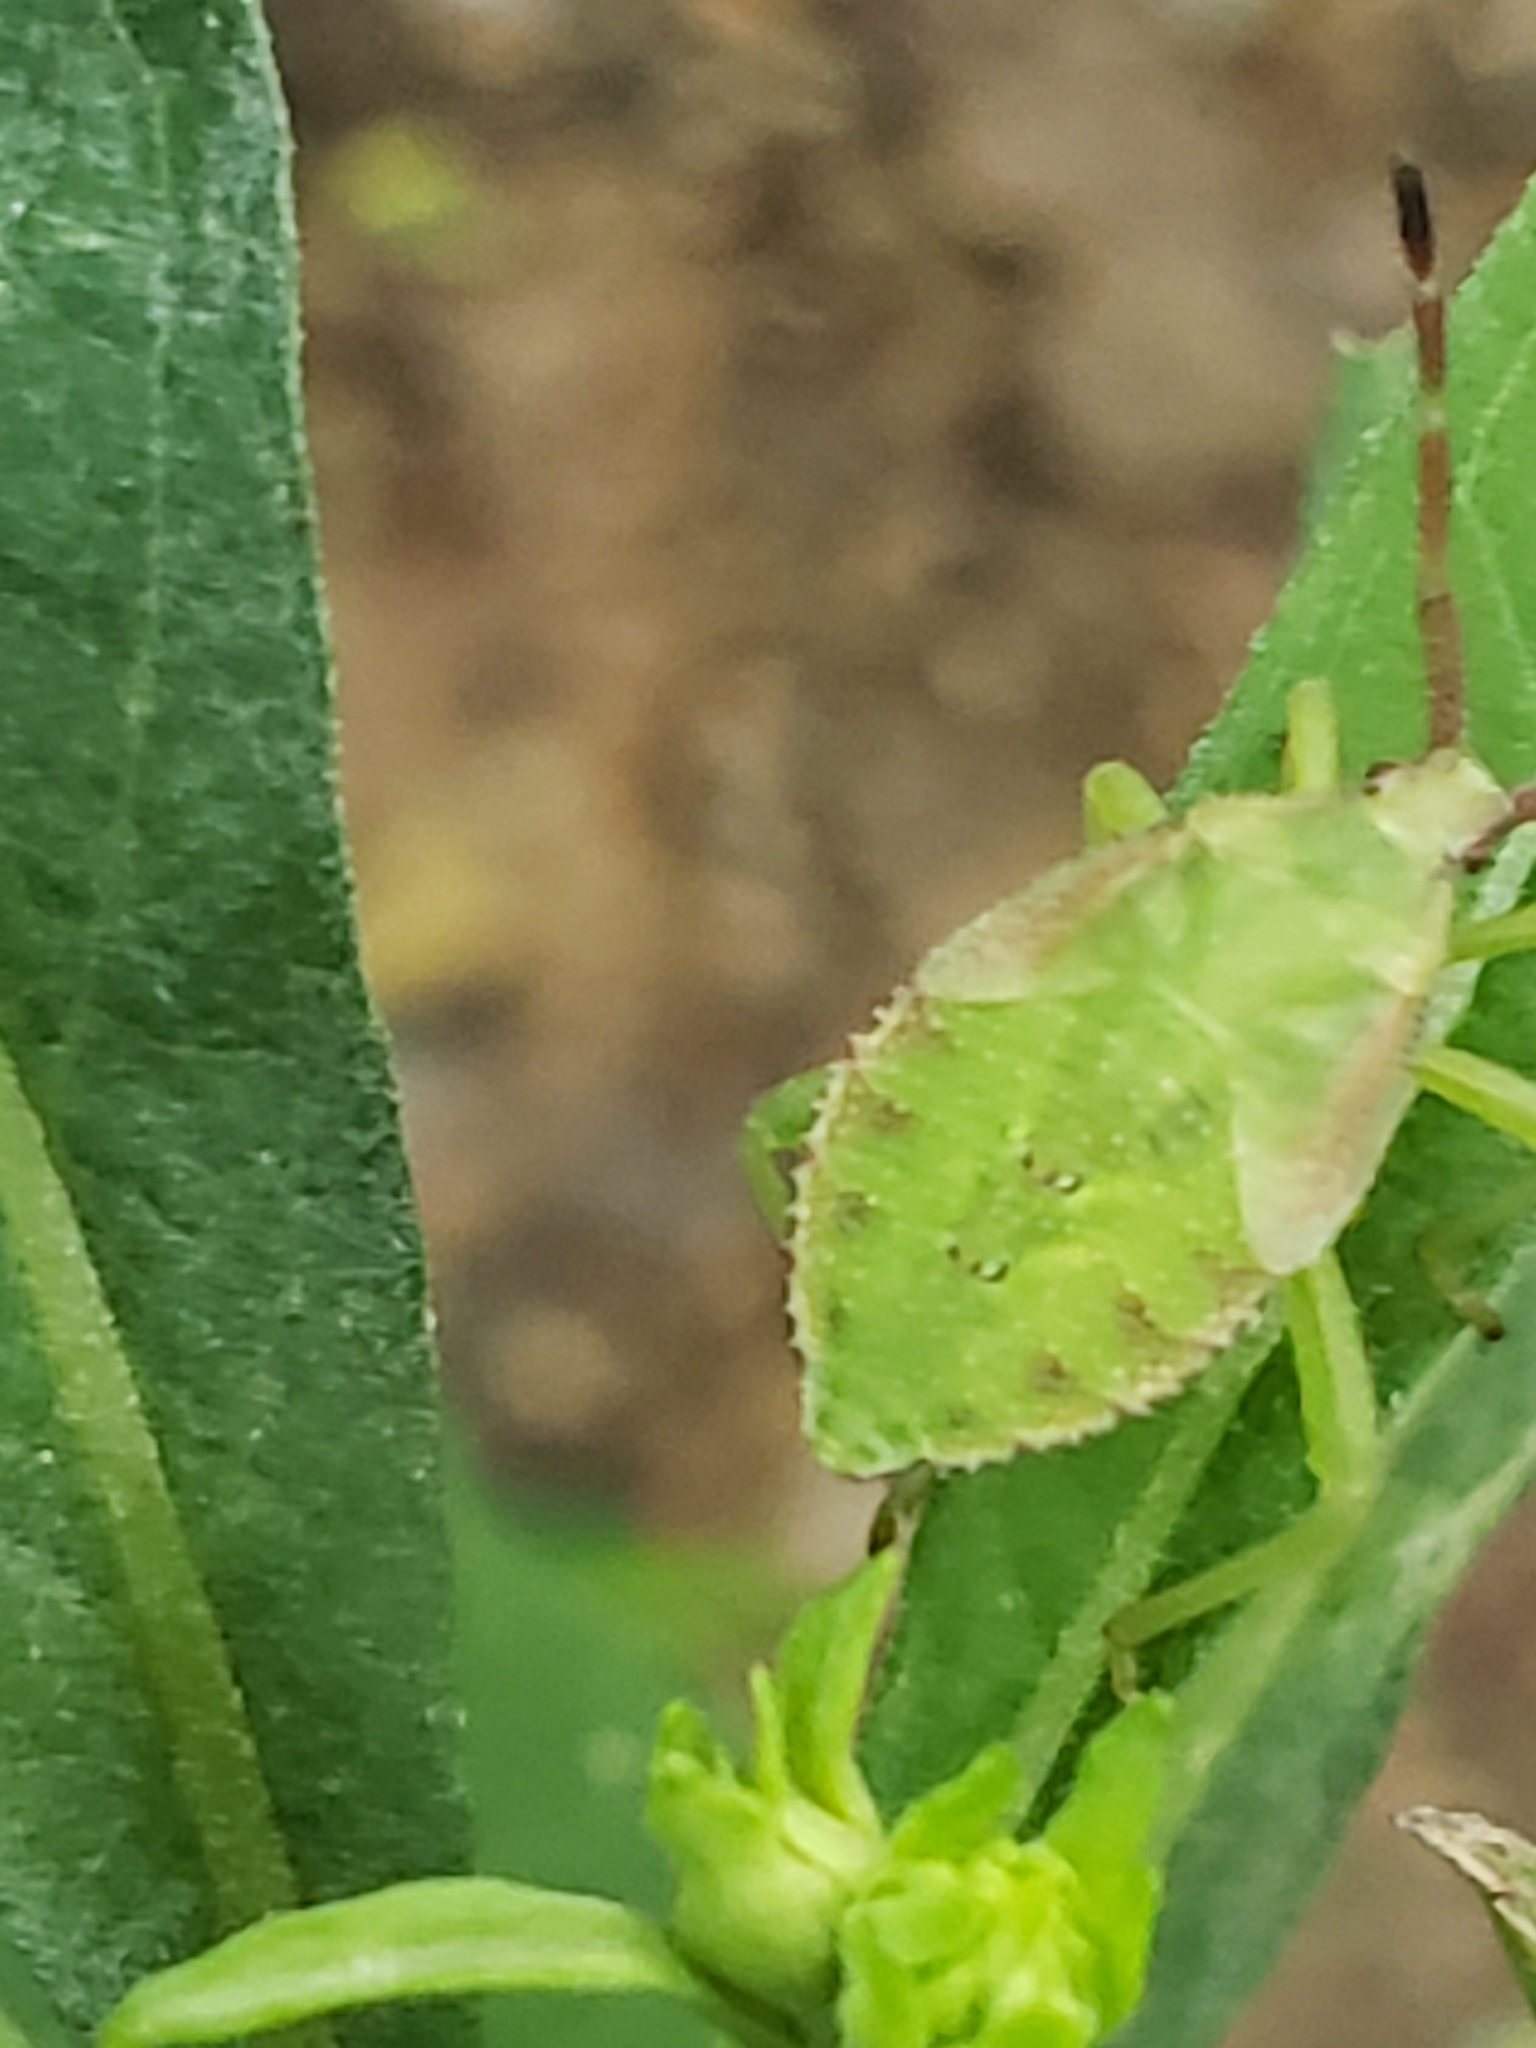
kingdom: Animalia
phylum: Arthropoda
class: Insecta
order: Hemiptera
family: Coreidae
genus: Piezogaster
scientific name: Piezogaster calcarator
